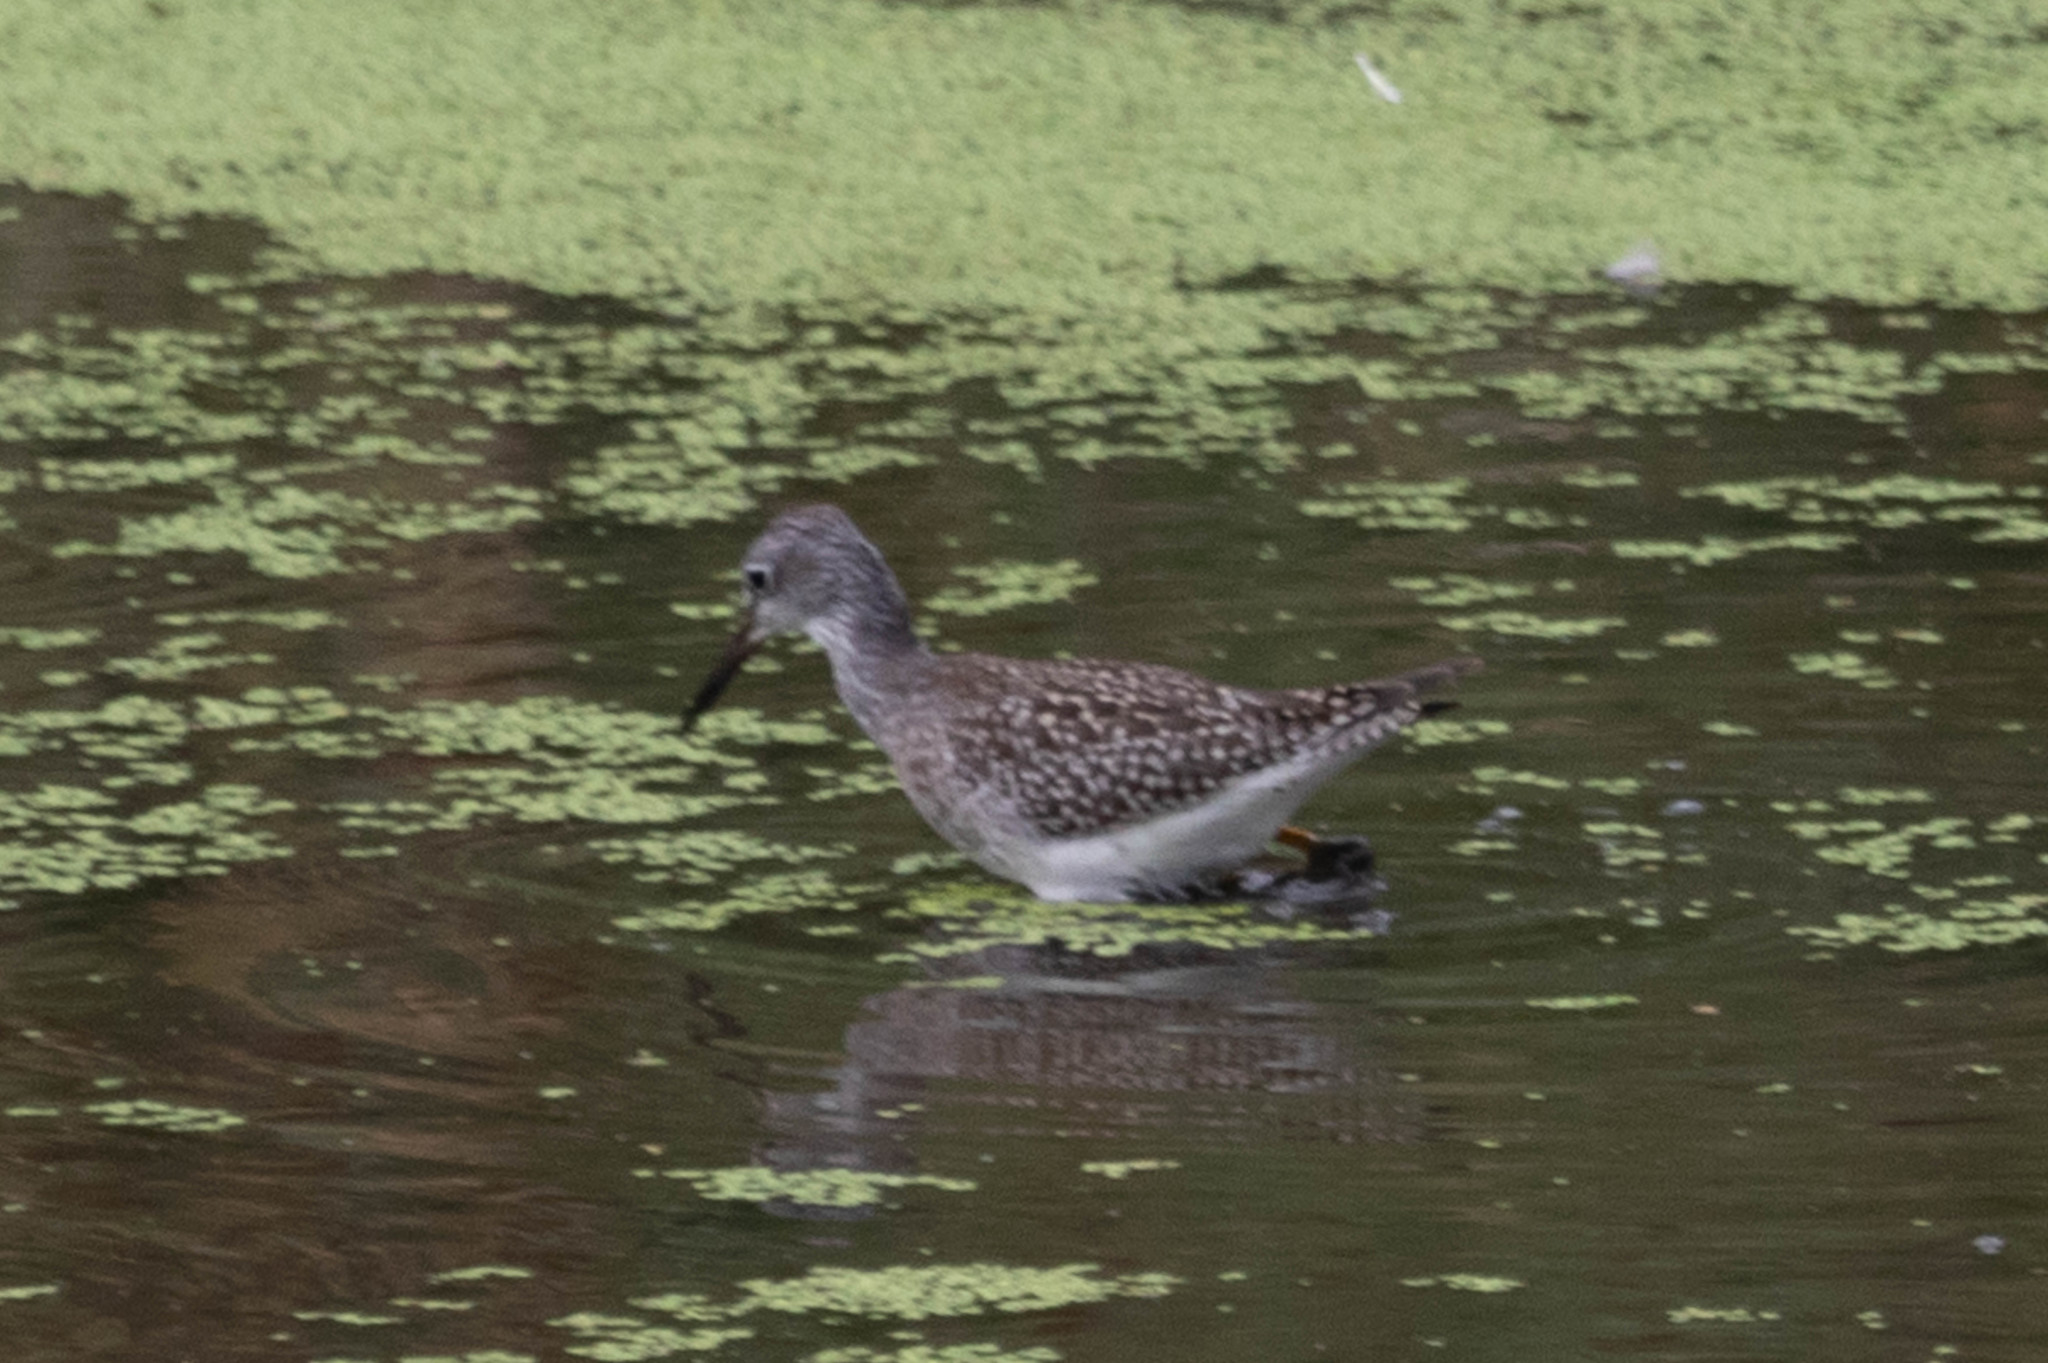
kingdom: Animalia
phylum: Chordata
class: Aves
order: Charadriiformes
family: Scolopacidae
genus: Tringa
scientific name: Tringa flavipes
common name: Lesser yellowlegs
